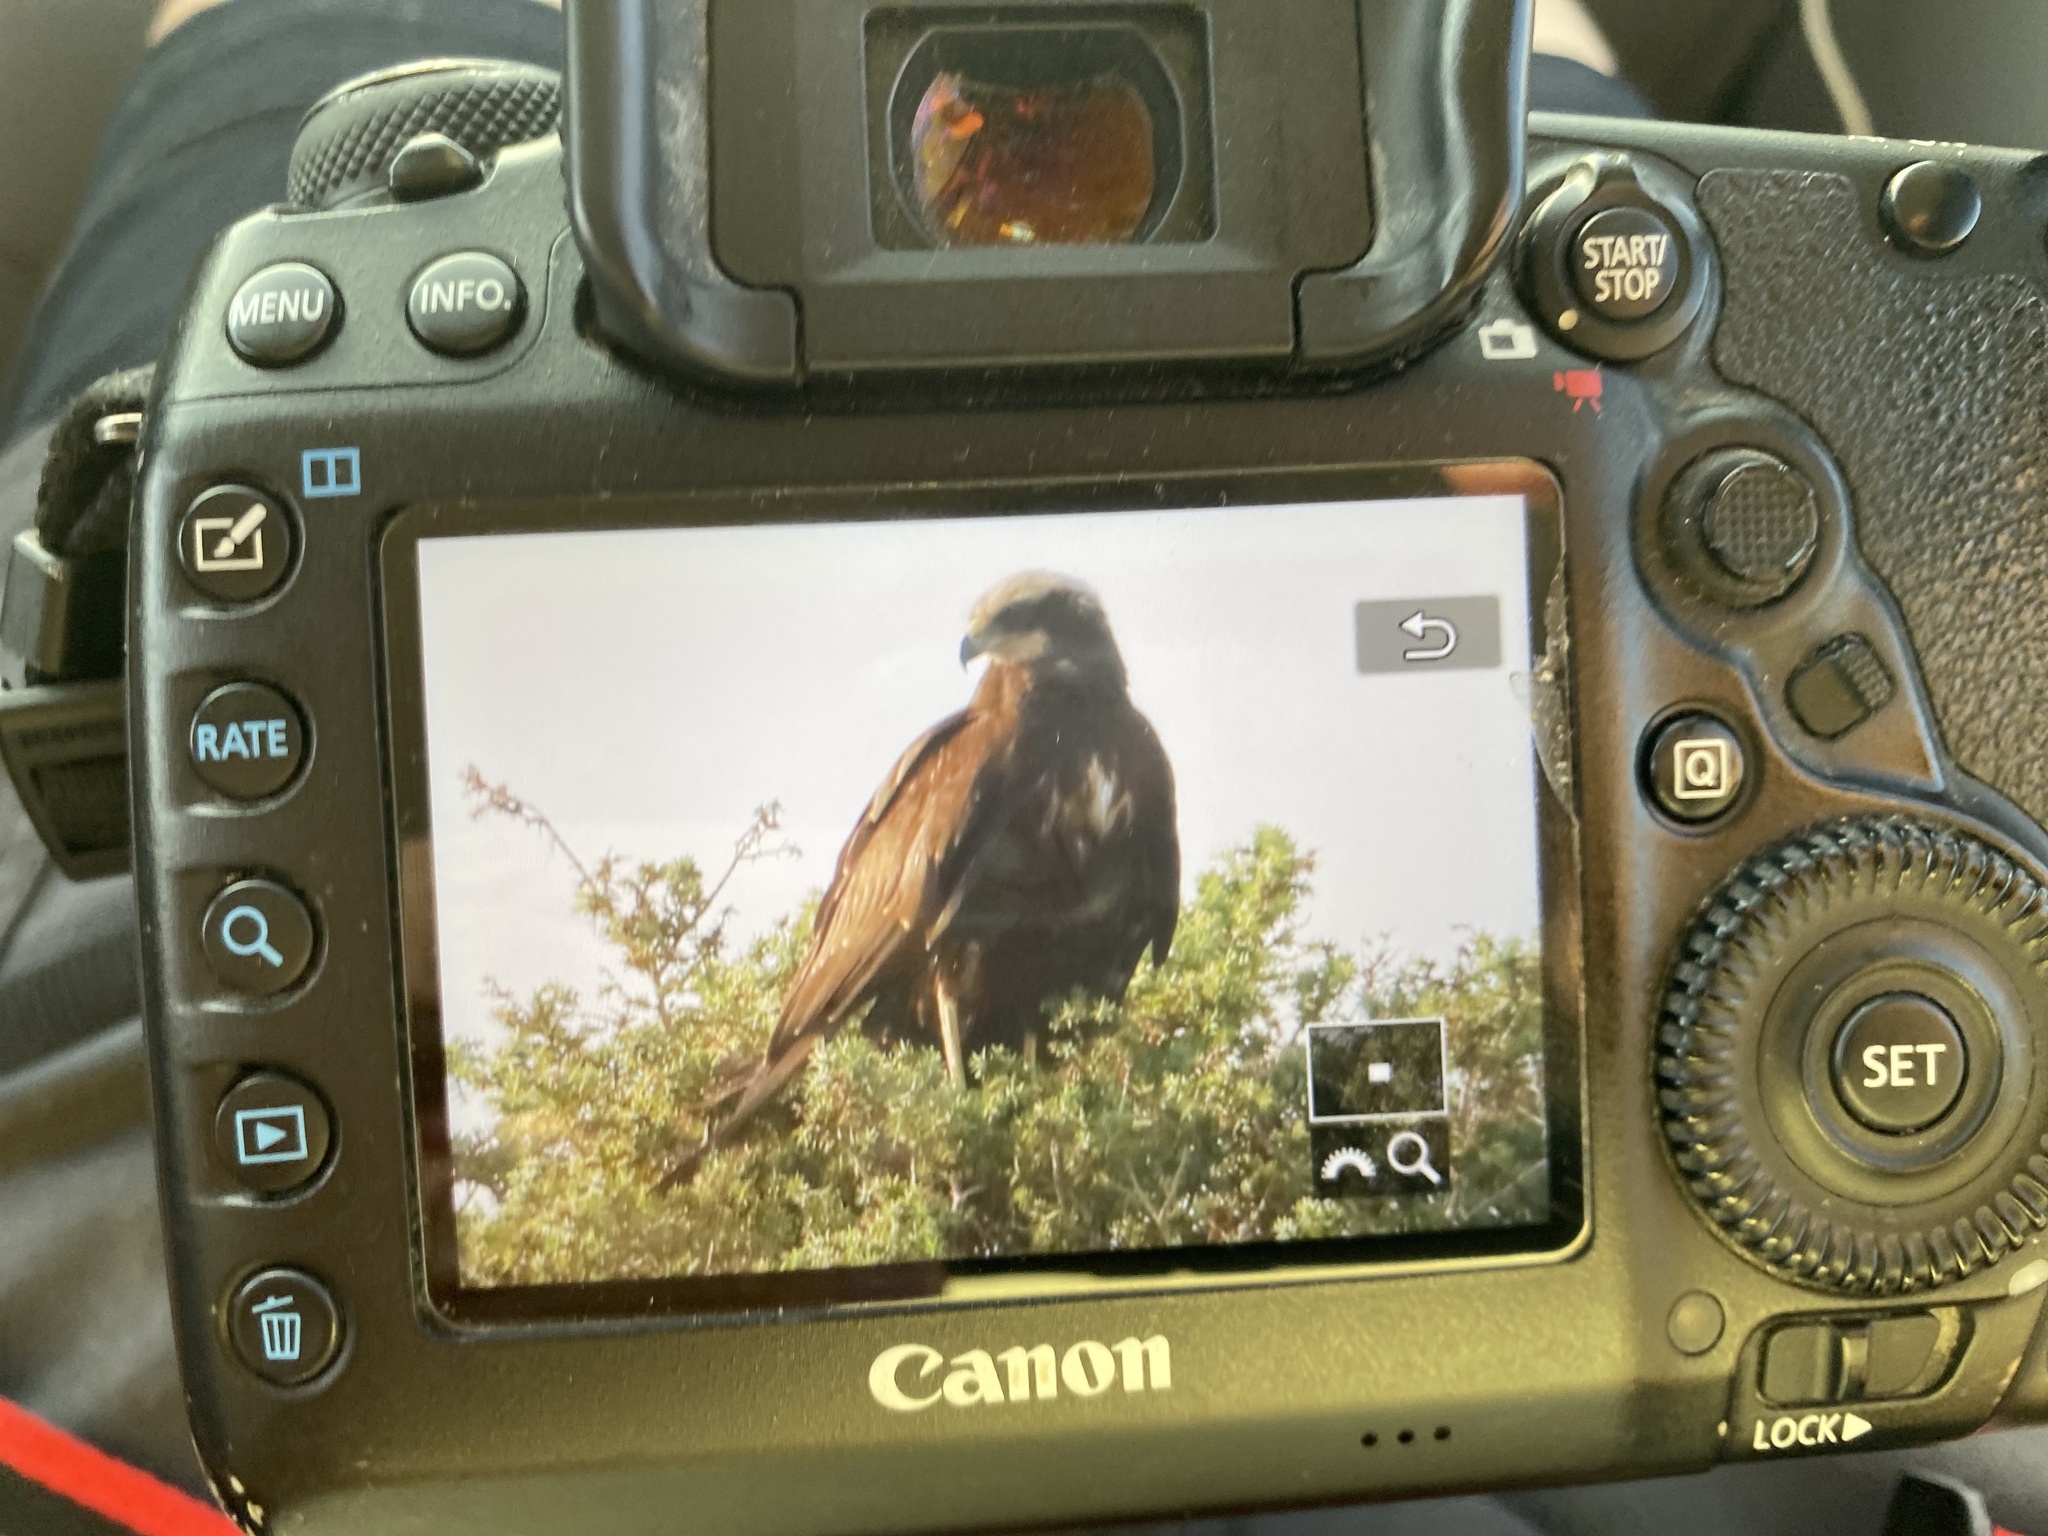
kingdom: Animalia
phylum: Chordata
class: Aves
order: Accipitriformes
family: Accipitridae
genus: Circus
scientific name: Circus aeruginosus
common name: Western marsh harrier
